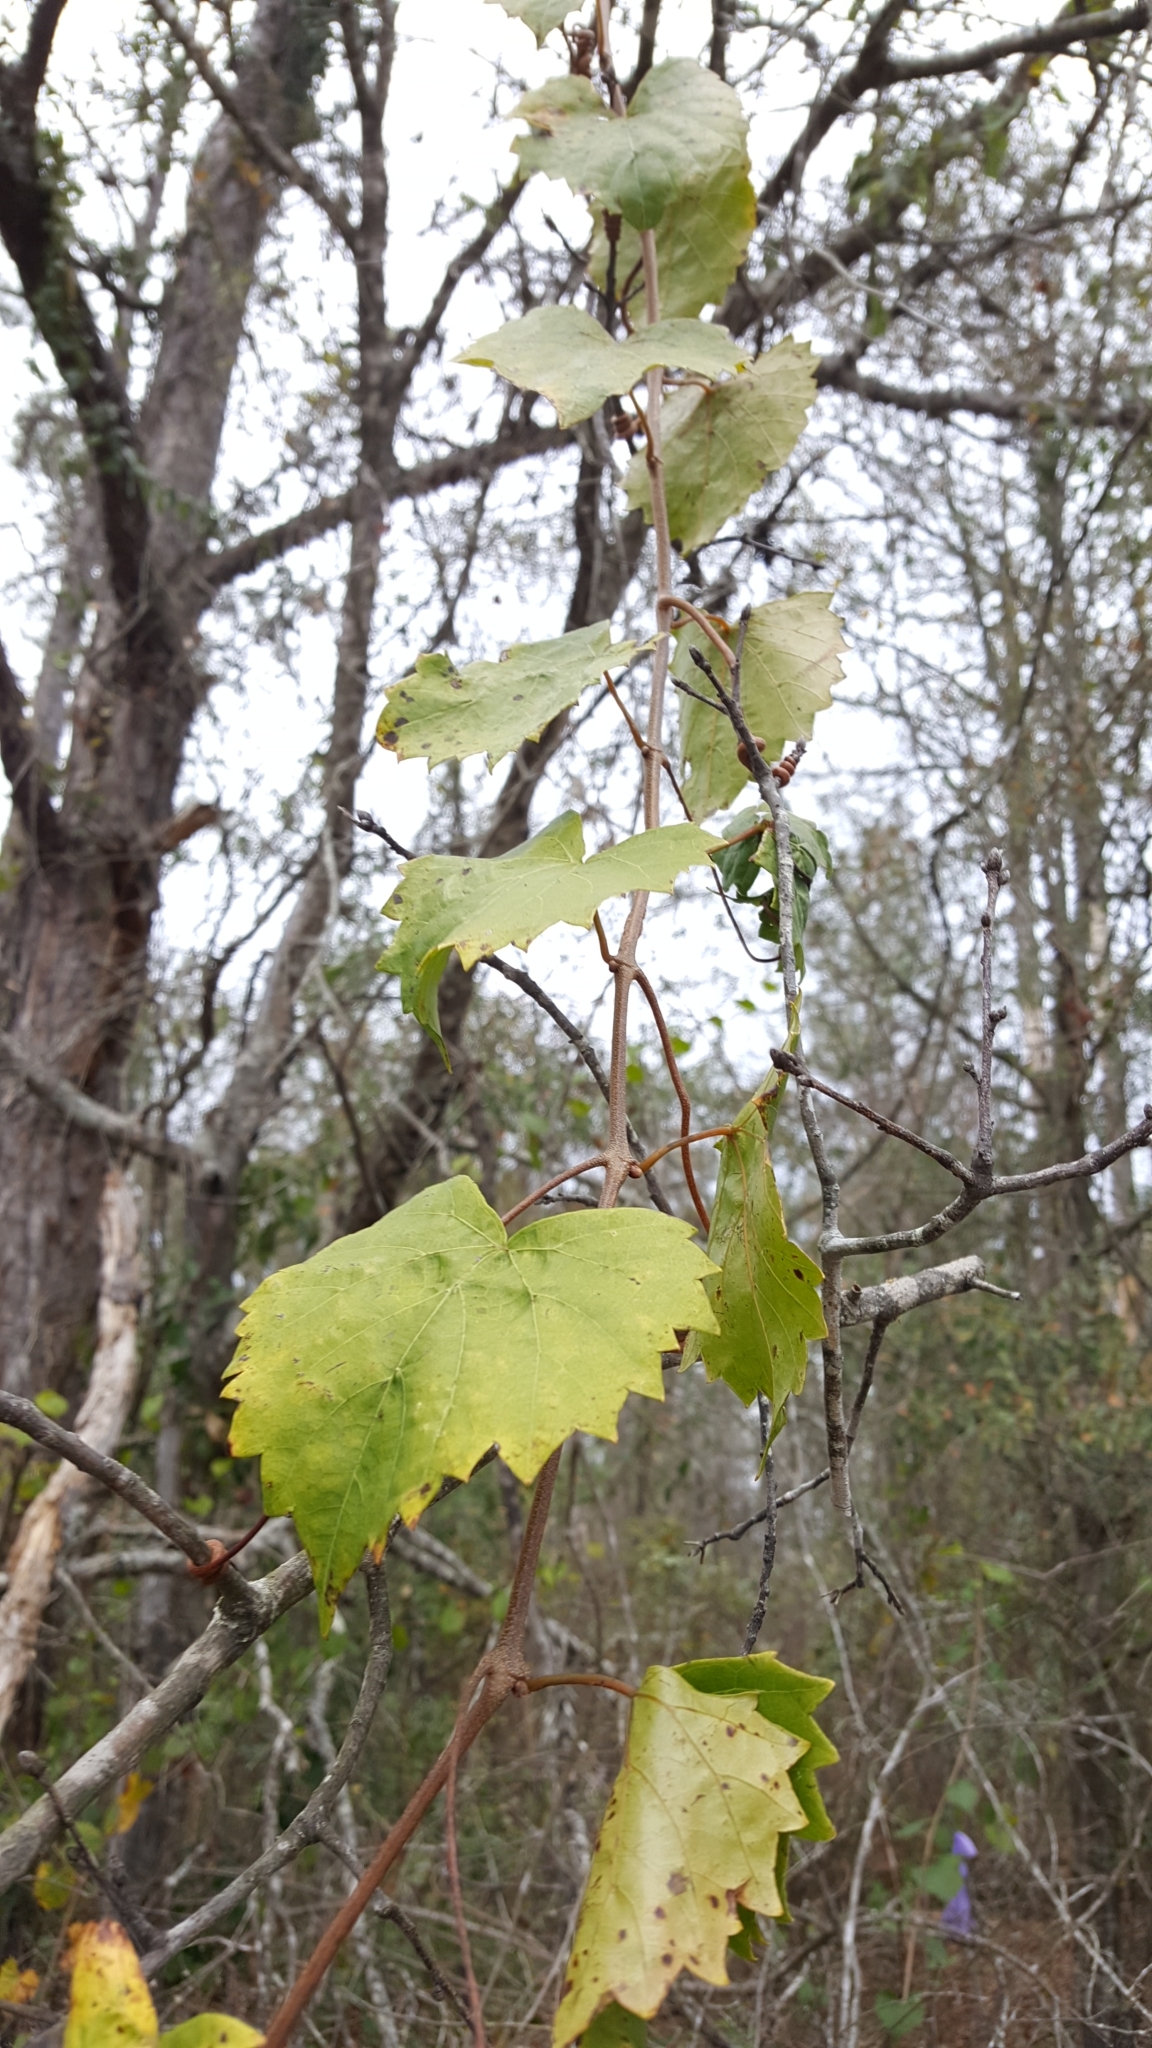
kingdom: Plantae
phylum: Tracheophyta
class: Magnoliopsida
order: Vitales
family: Vitaceae
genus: Vitis
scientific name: Vitis rotundifolia
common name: Muscadine grape
